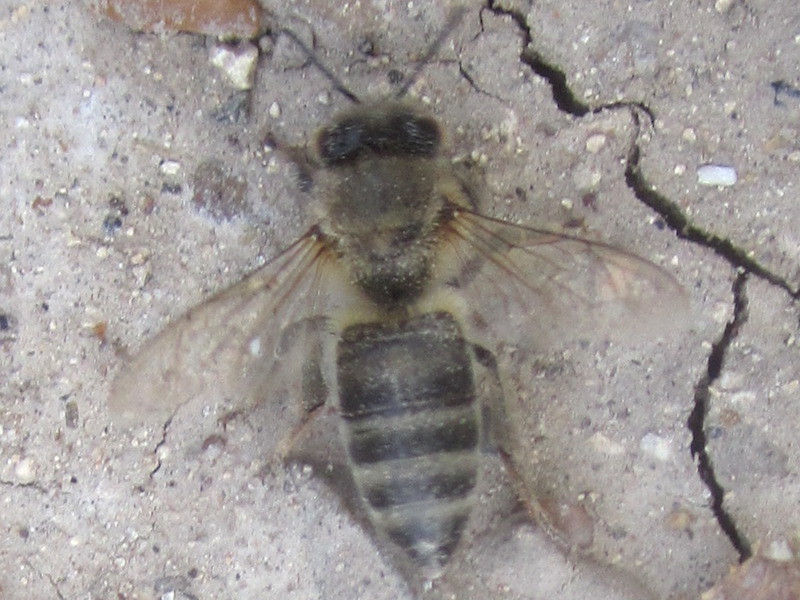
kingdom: Animalia
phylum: Arthropoda
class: Insecta
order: Hymenoptera
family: Apidae
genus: Apis
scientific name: Apis mellifera
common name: Honey bee
